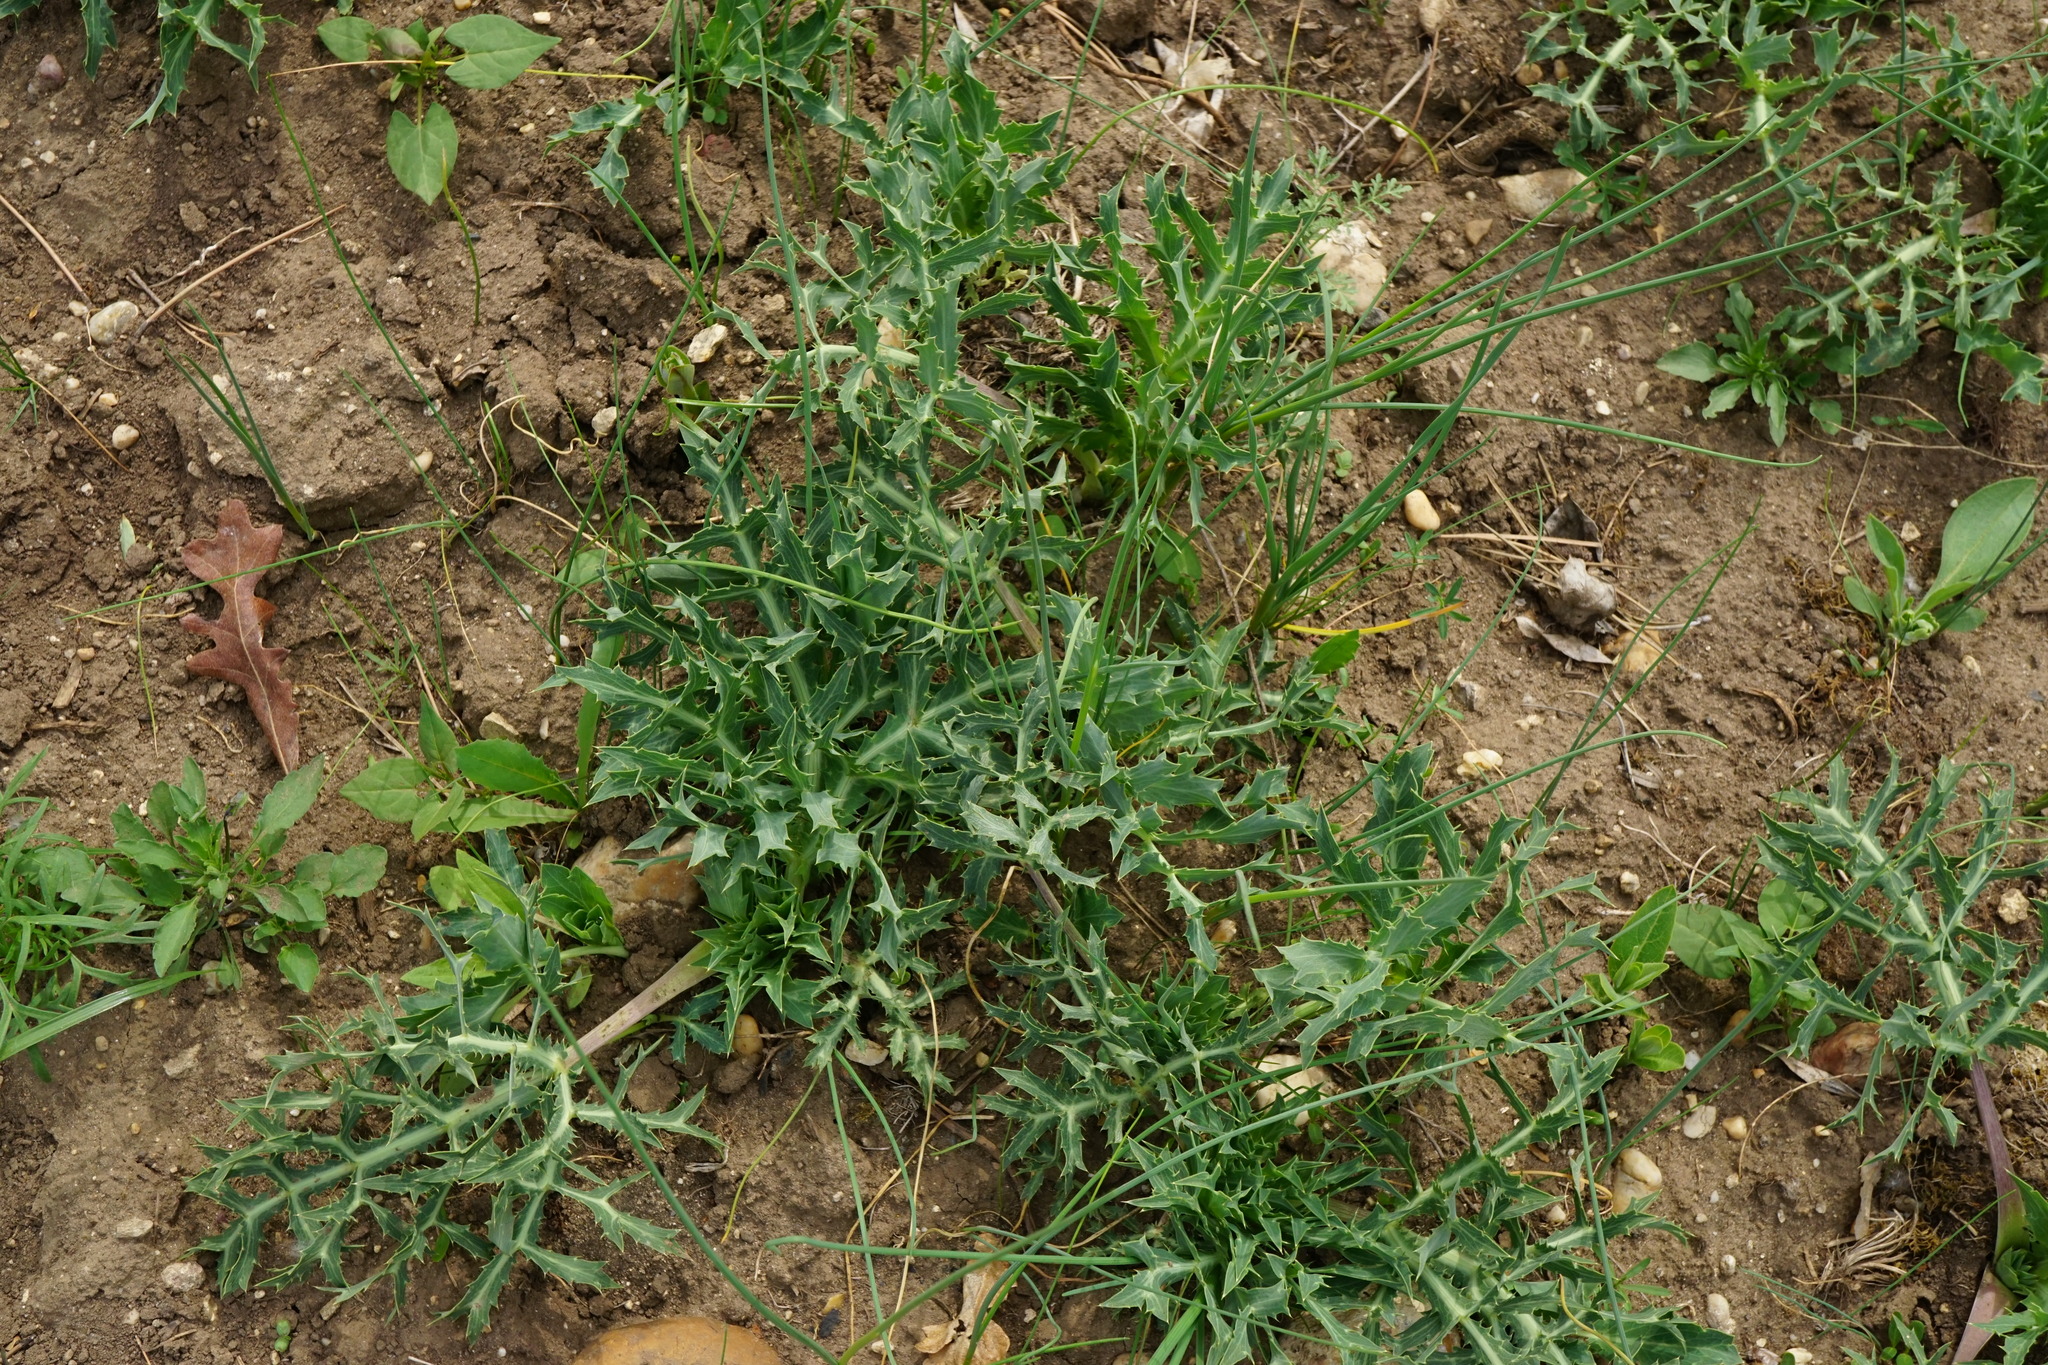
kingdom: Plantae
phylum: Tracheophyta
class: Magnoliopsida
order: Apiales
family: Apiaceae
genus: Eryngium
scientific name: Eryngium campestre
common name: Field eryngo
